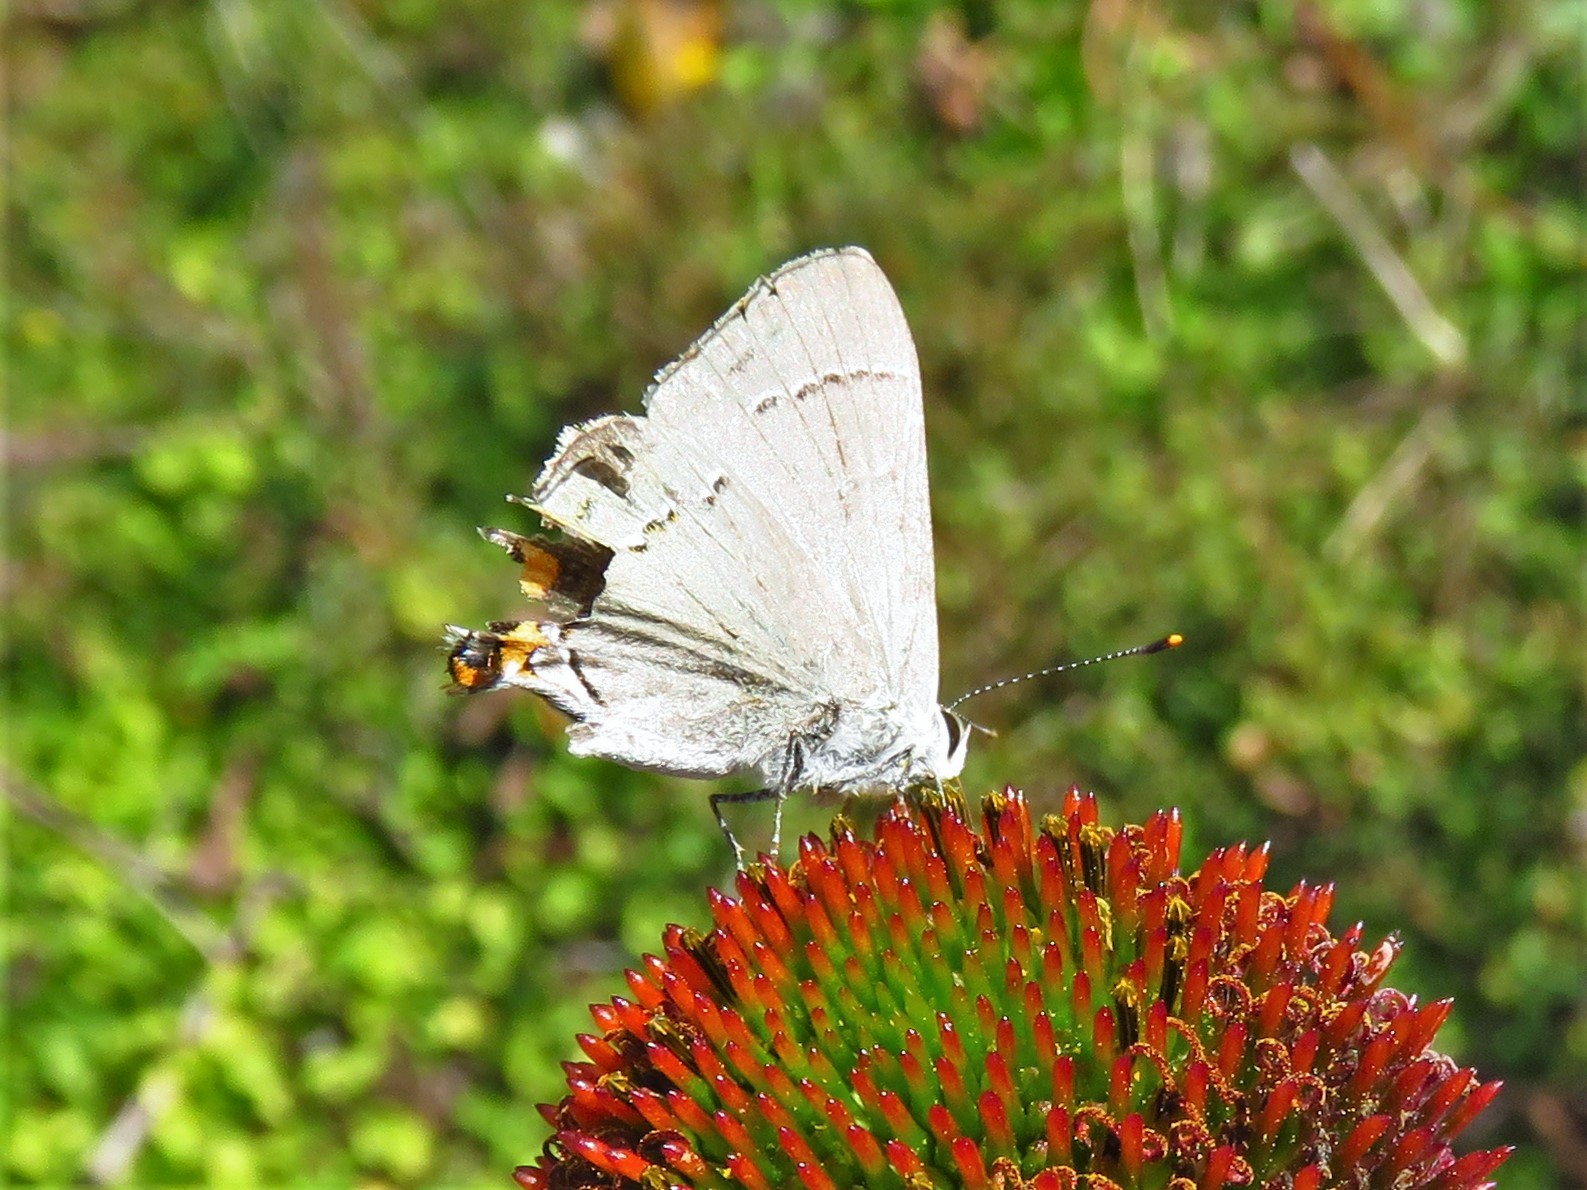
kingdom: Animalia
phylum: Arthropoda
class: Insecta
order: Lepidoptera
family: Lycaenidae
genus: Strymon
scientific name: Strymon melinus
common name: Gray hairstreak
